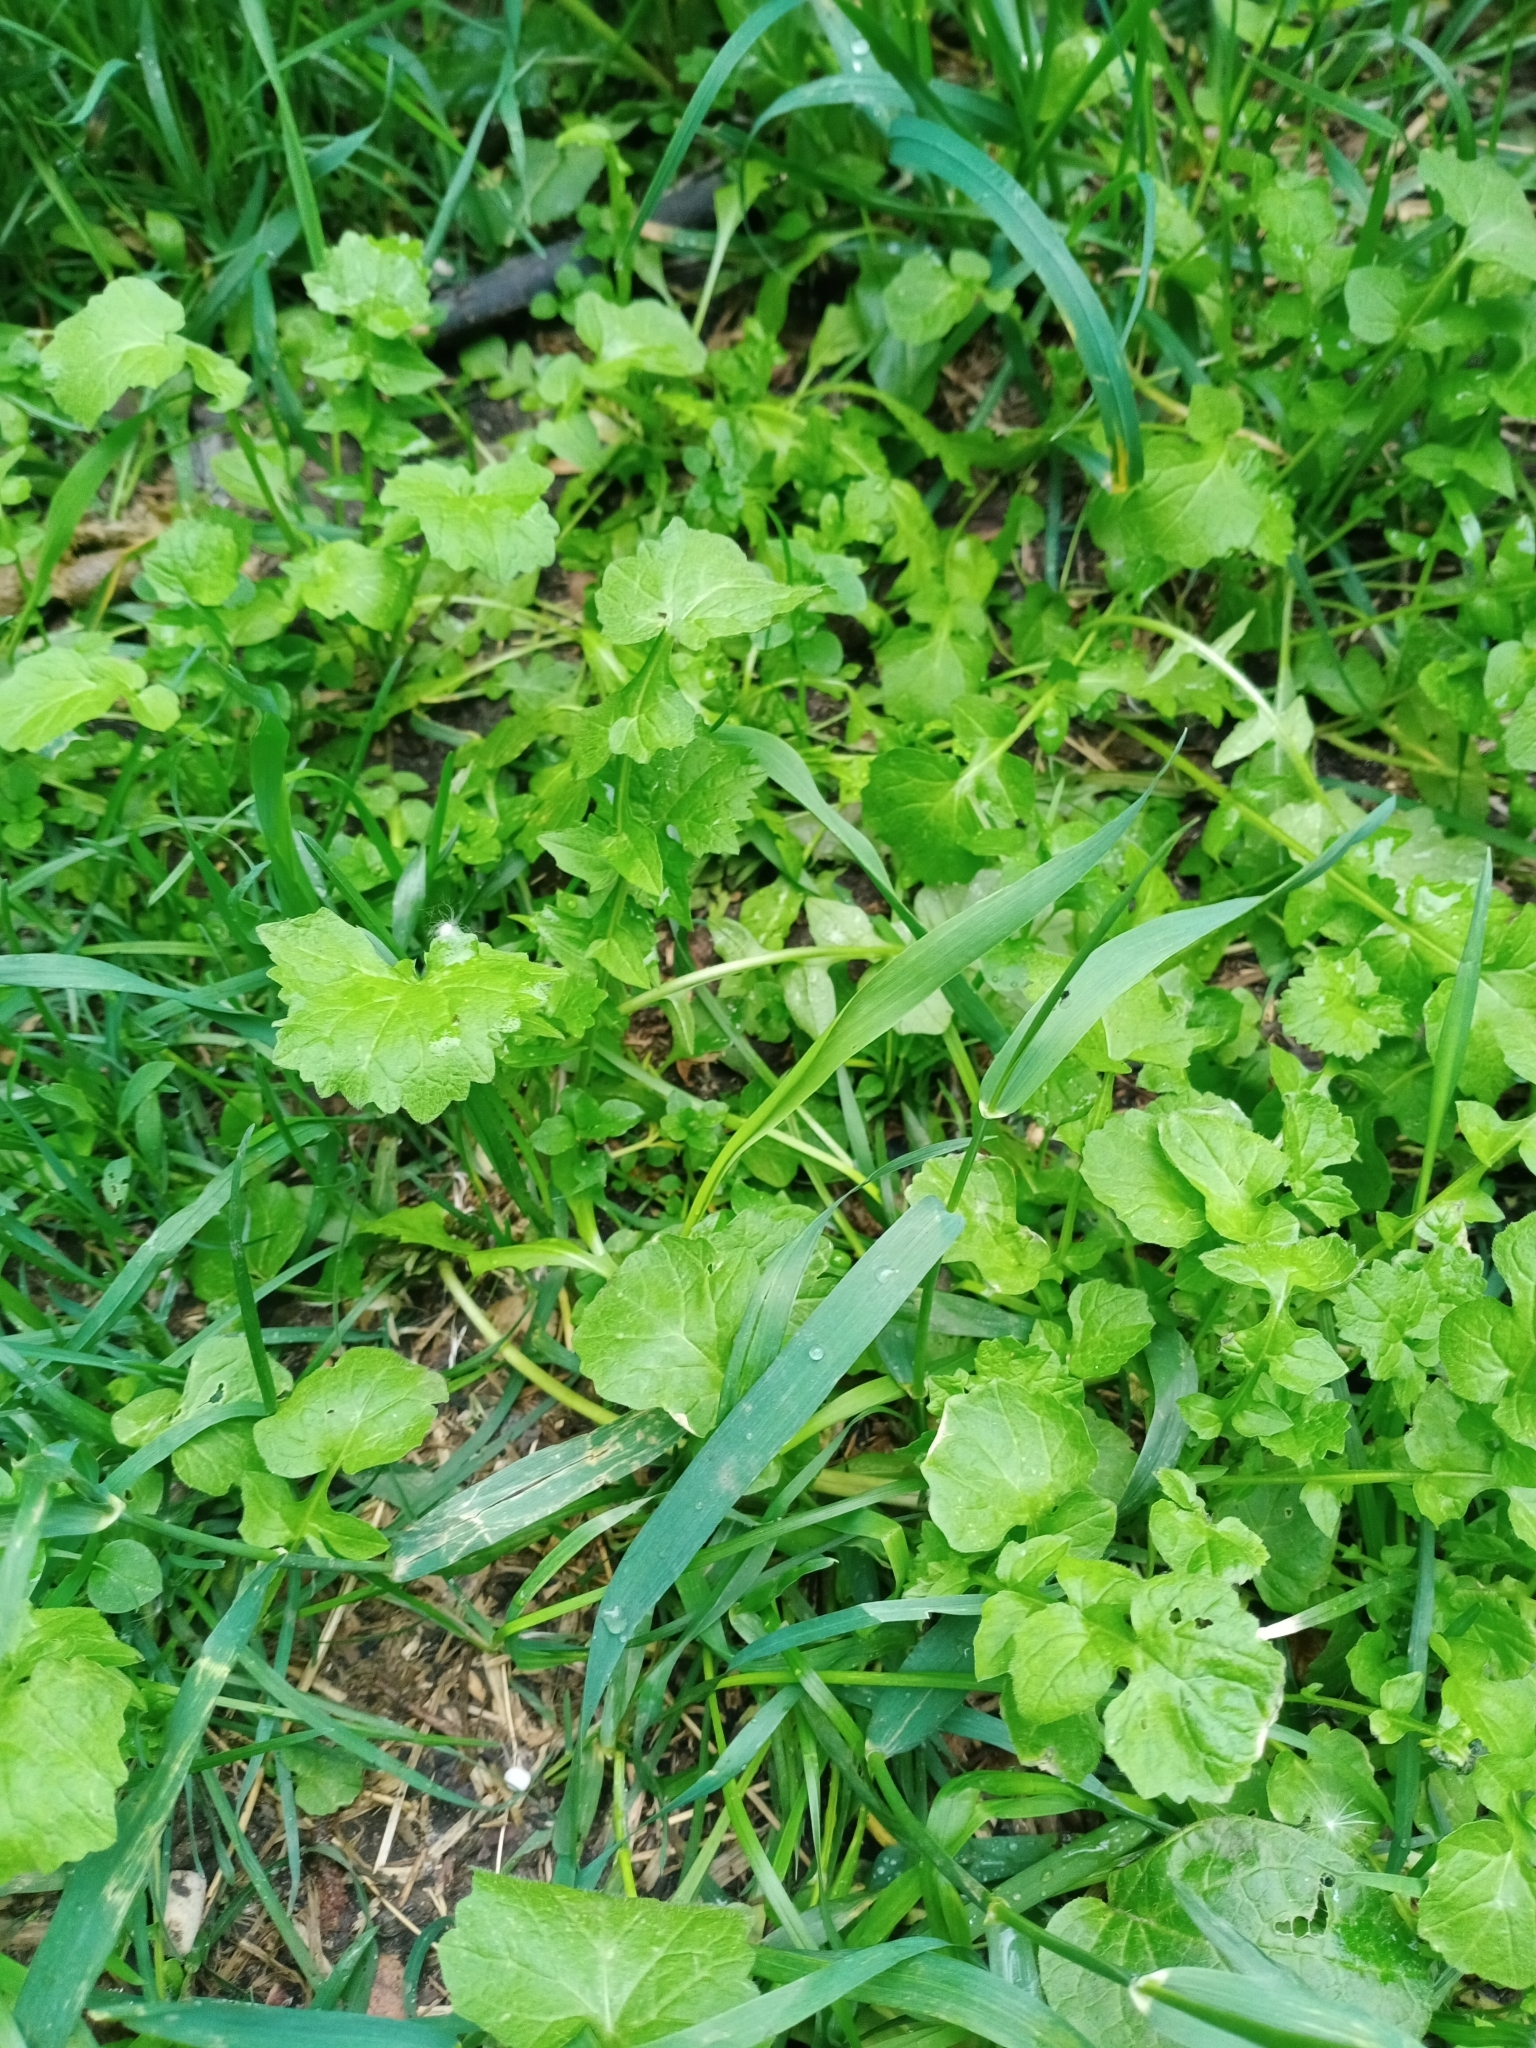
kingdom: Plantae
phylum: Tracheophyta
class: Magnoliopsida
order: Brassicales
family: Brassicaceae
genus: Sisymbrium
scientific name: Sisymbrium officinale
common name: Hedge mustard
